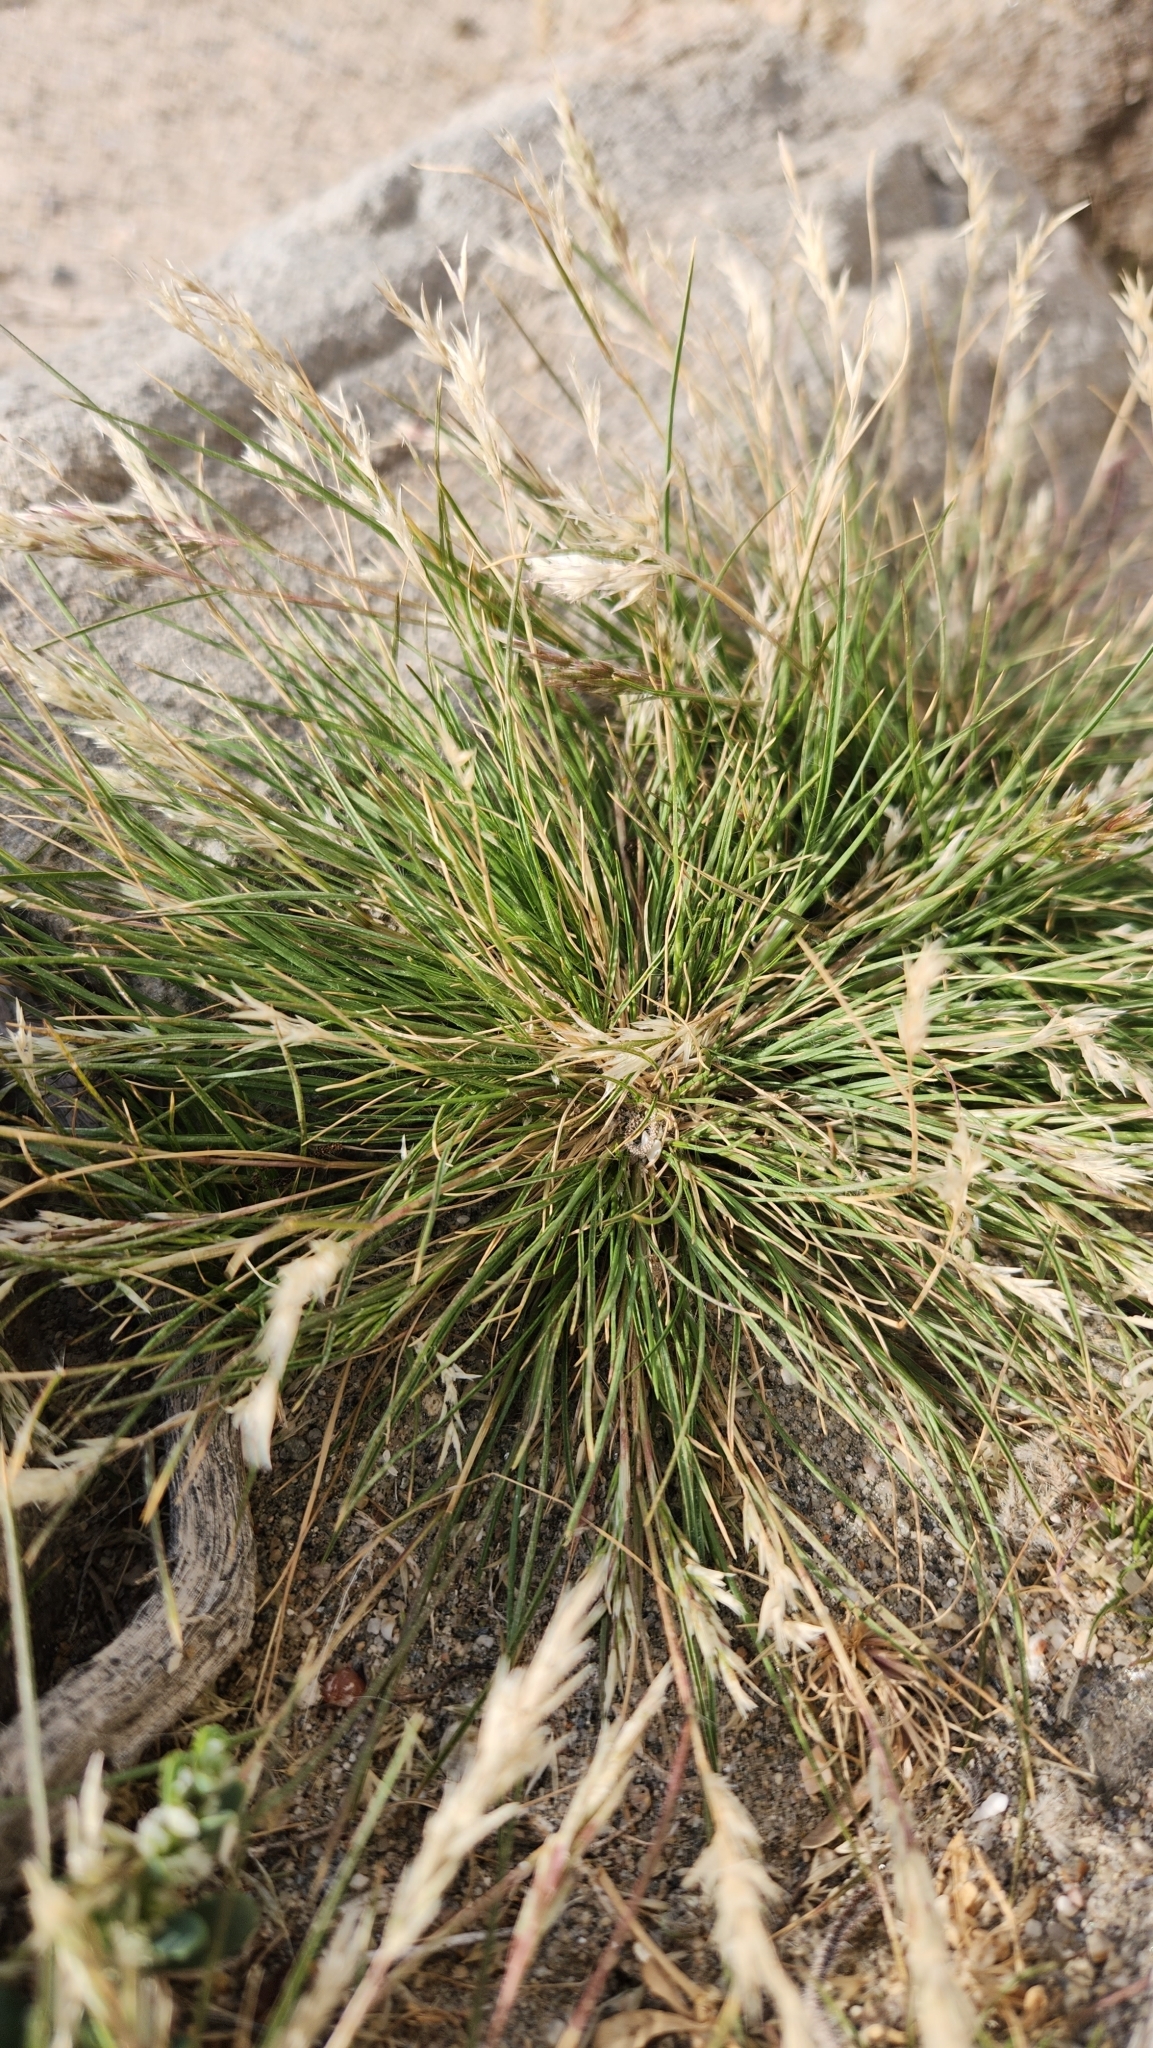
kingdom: Plantae
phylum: Tracheophyta
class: Liliopsida
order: Poales
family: Poaceae
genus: Schismus
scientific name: Schismus barbatus
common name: Kelch-grass
